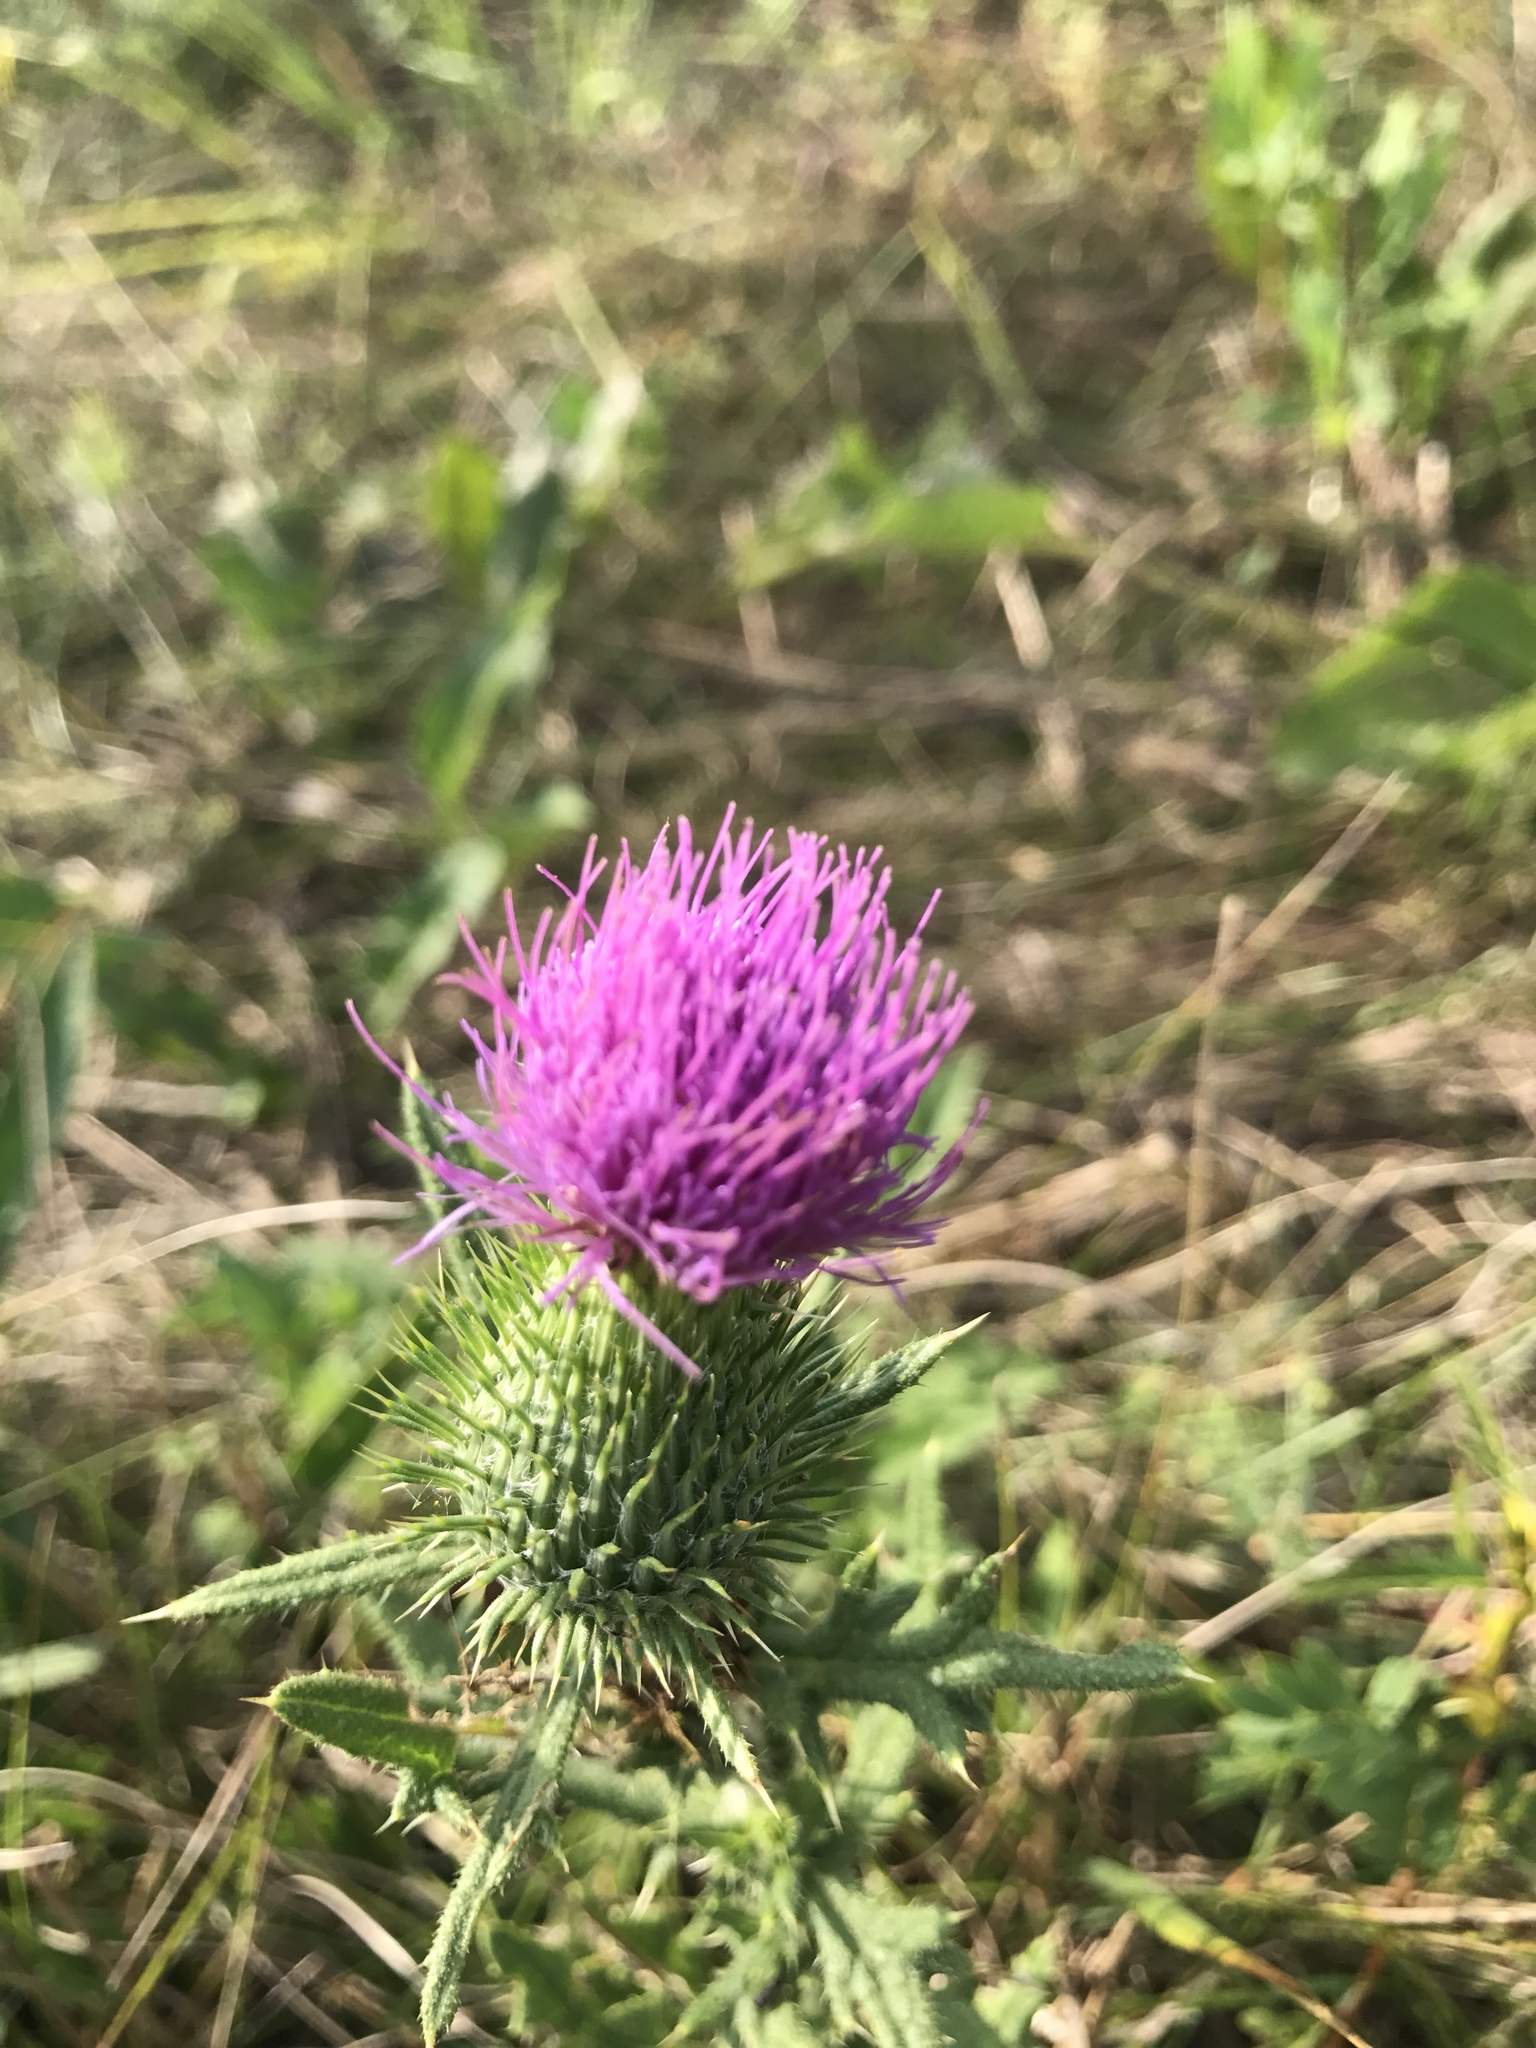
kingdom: Plantae
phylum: Tracheophyta
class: Magnoliopsida
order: Asterales
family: Asteraceae
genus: Cirsium
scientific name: Cirsium vulgare
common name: Bull thistle
